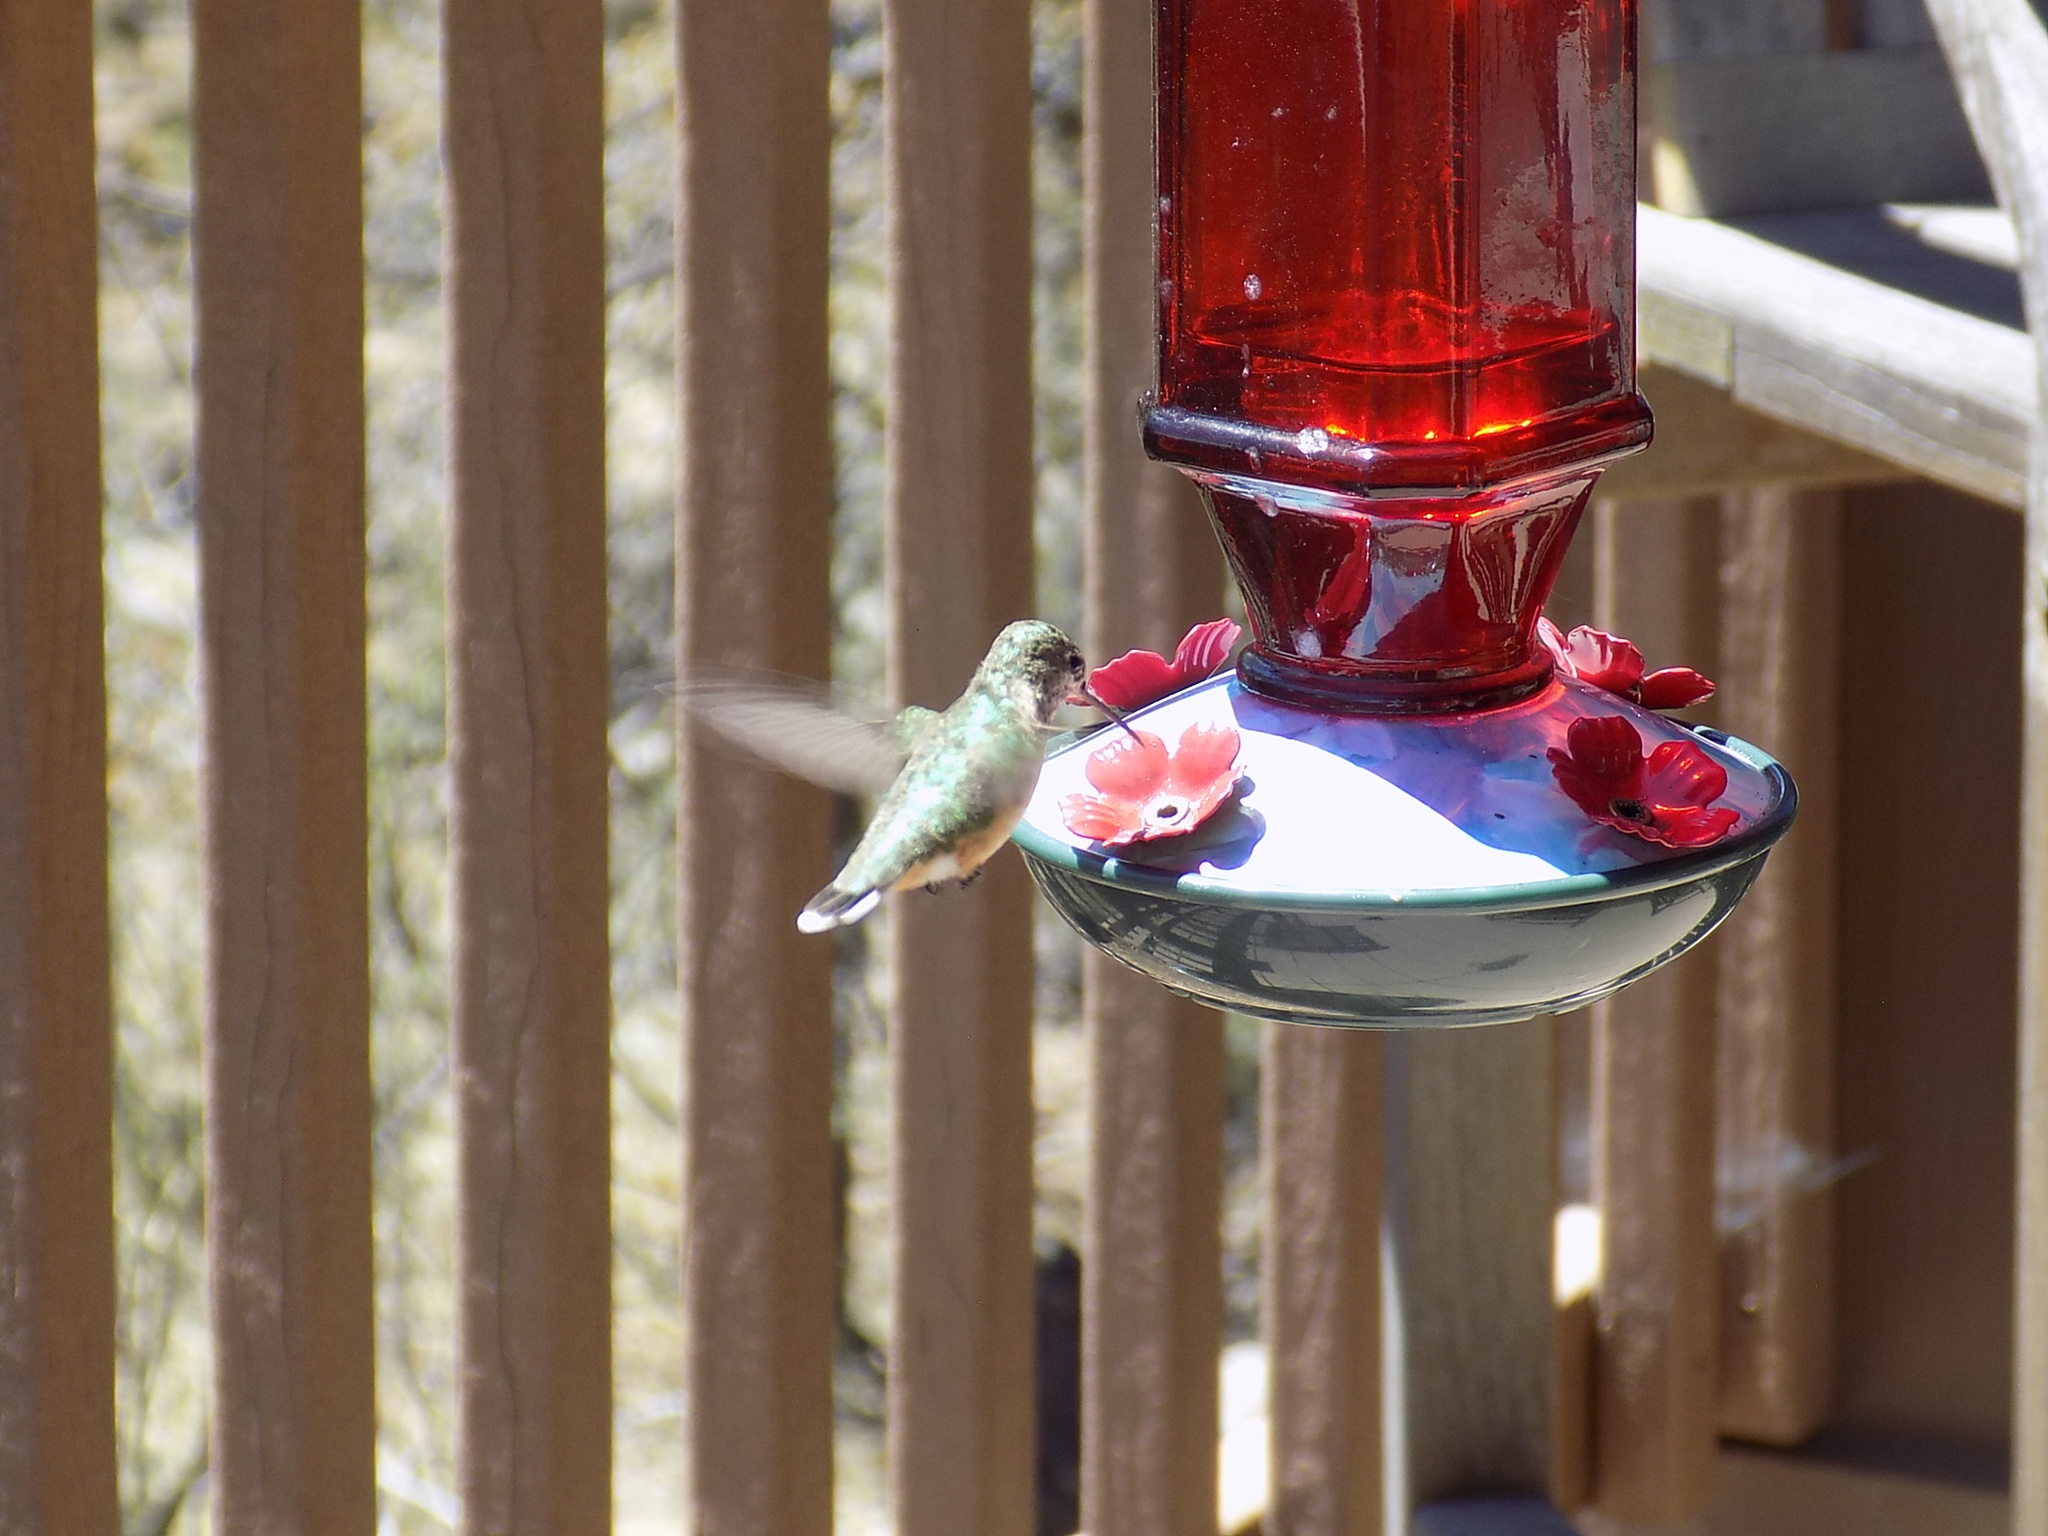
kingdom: Animalia
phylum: Chordata
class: Aves
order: Apodiformes
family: Trochilidae
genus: Selasphorus
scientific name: Selasphorus platycercus
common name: Broad-tailed hummingbird
